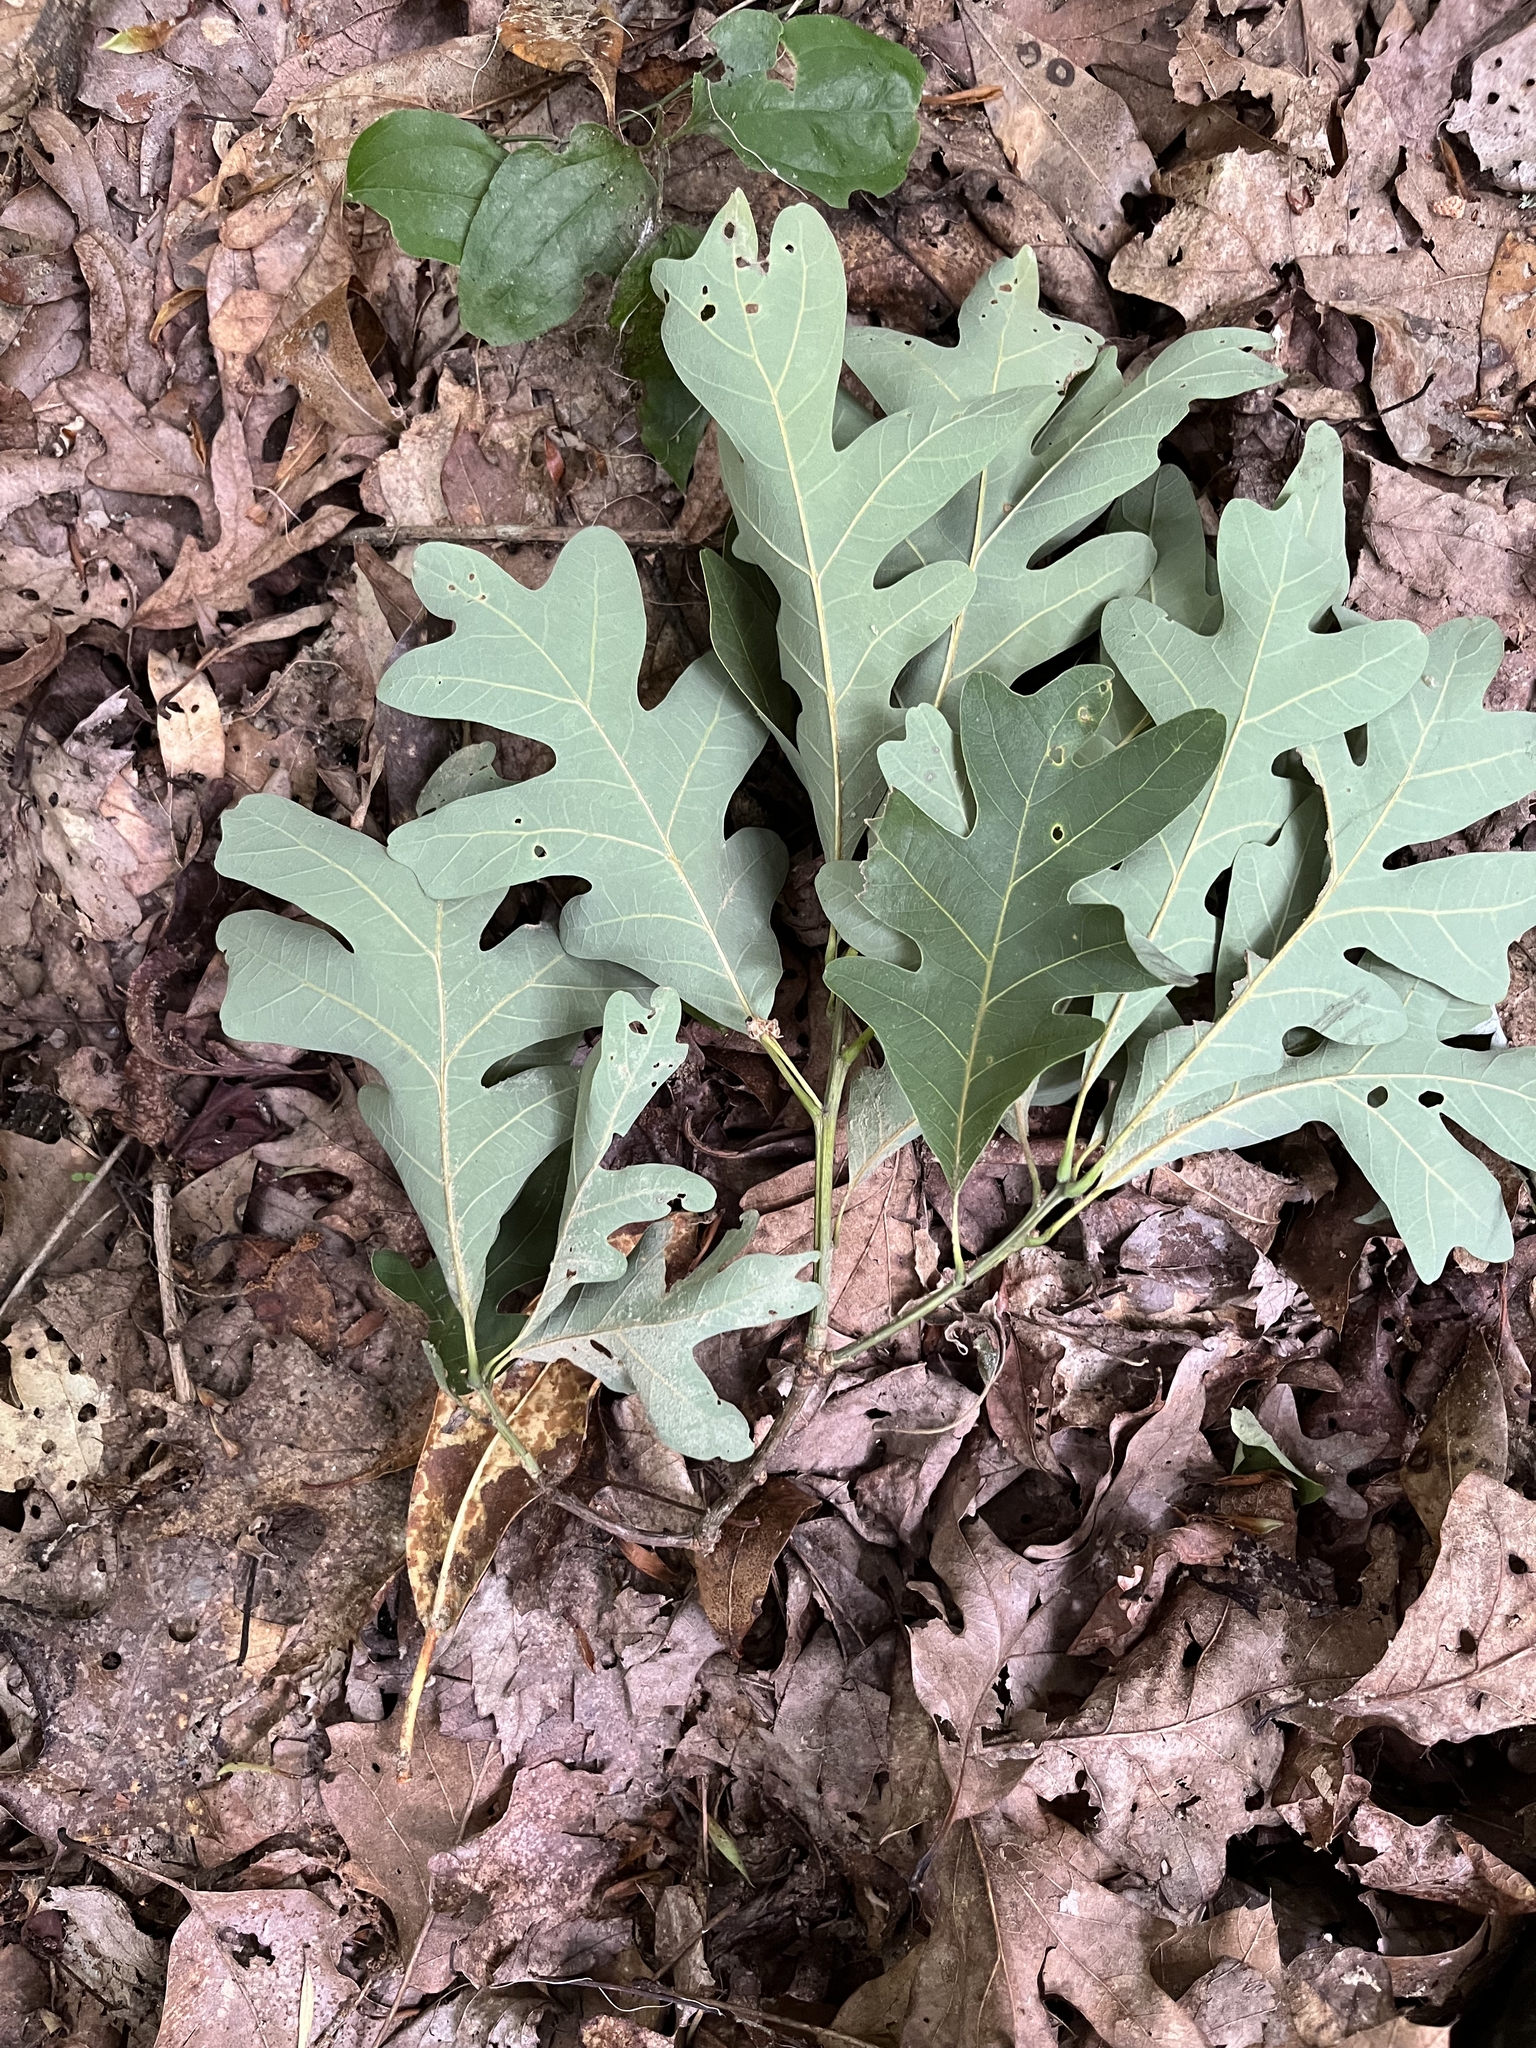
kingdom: Plantae
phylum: Tracheophyta
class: Magnoliopsida
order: Fagales
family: Fagaceae
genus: Quercus
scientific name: Quercus alba
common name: White oak
